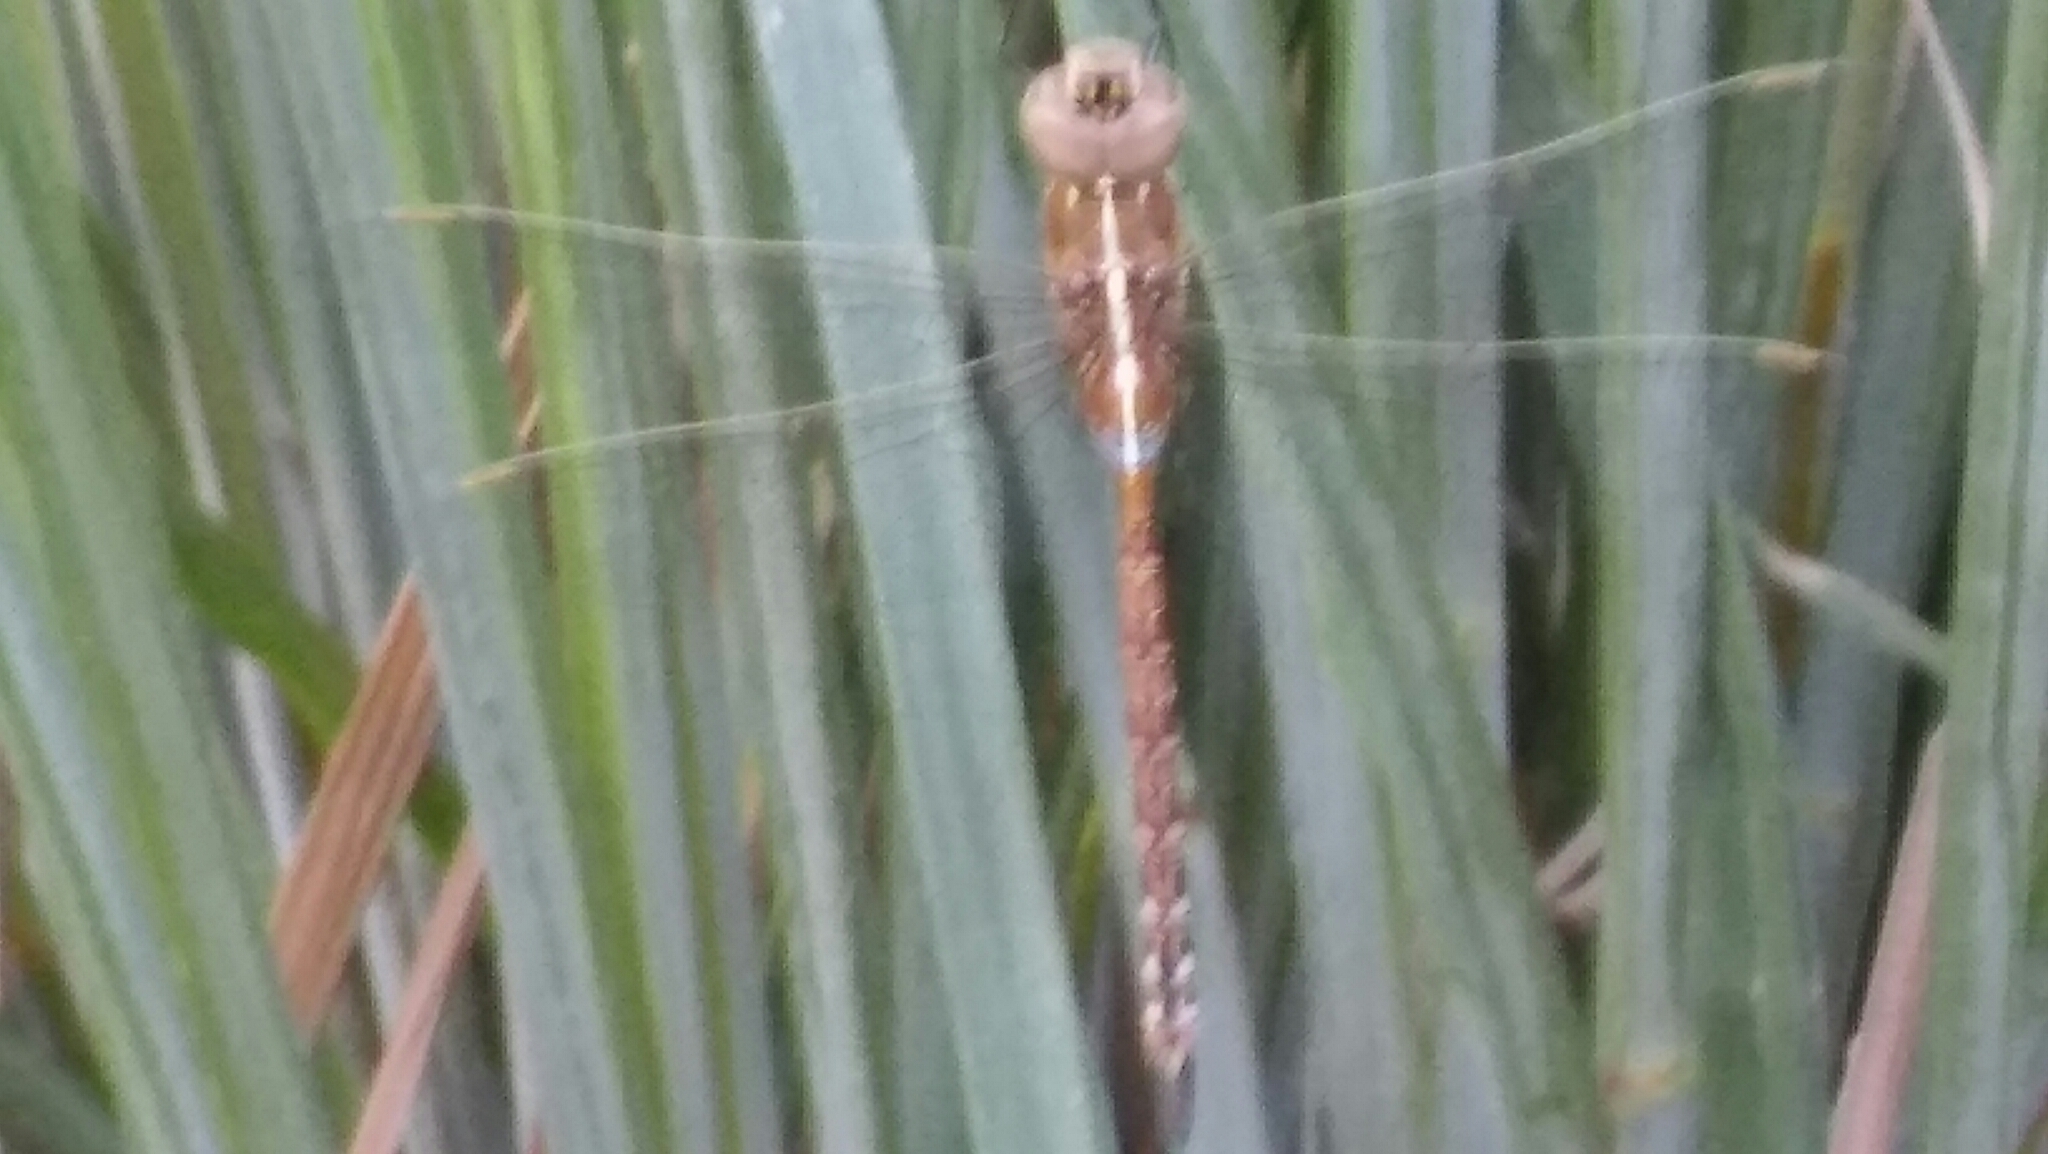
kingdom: Animalia
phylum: Arthropoda
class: Insecta
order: Odonata
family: Aeshnidae
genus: Rhionaeschna
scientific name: Rhionaeschna bonariensis
